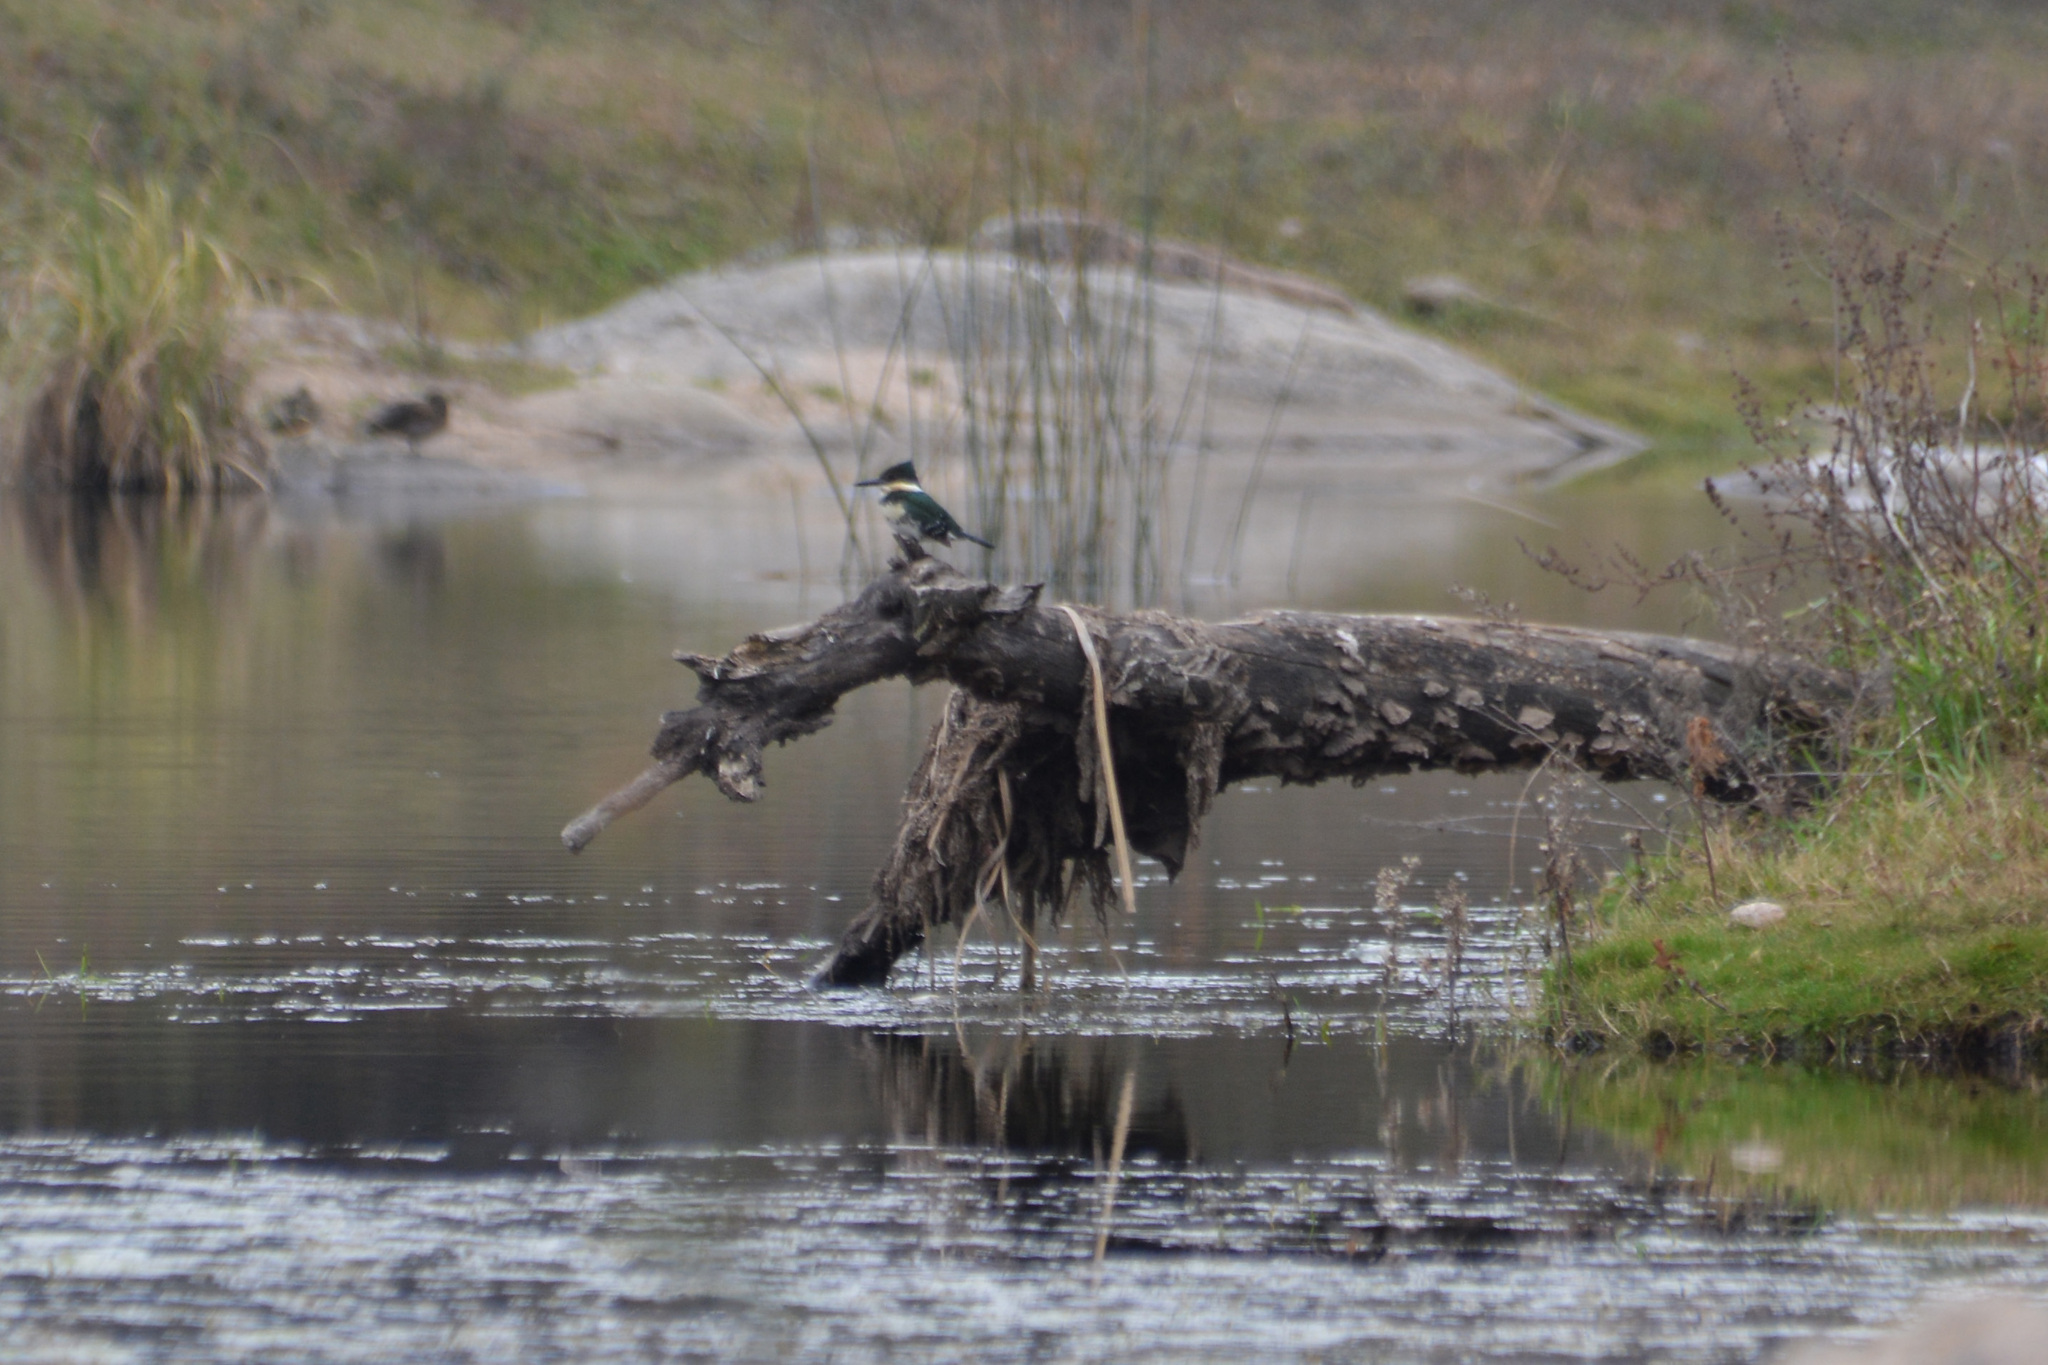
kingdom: Animalia
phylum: Chordata
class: Aves
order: Coraciiformes
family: Alcedinidae
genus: Chloroceryle
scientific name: Chloroceryle americana
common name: Green kingfisher
